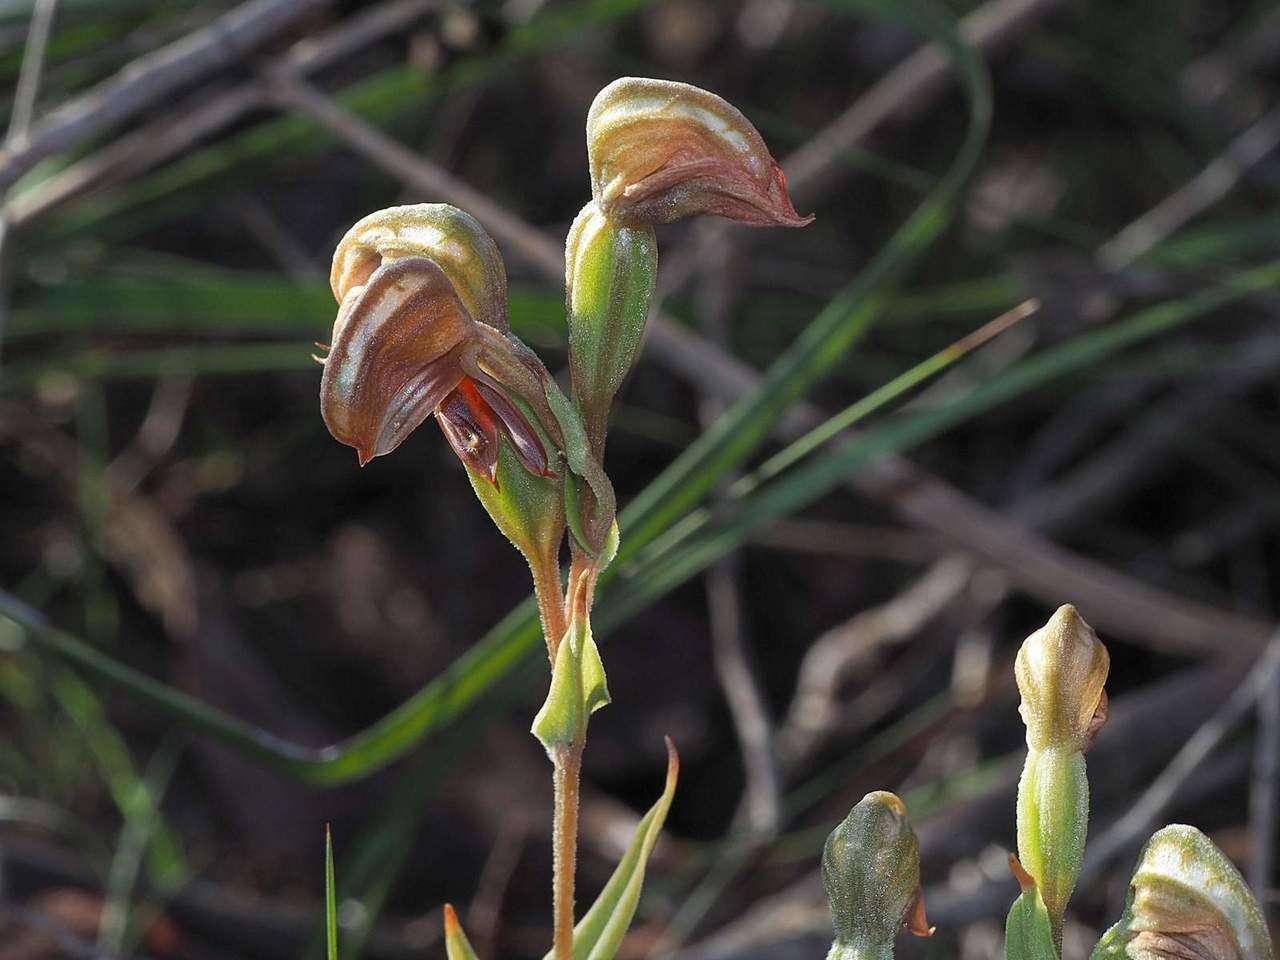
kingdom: Plantae
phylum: Tracheophyta
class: Liliopsida
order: Asparagales
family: Orchidaceae
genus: Pterostylis
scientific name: Pterostylis sanguinea
